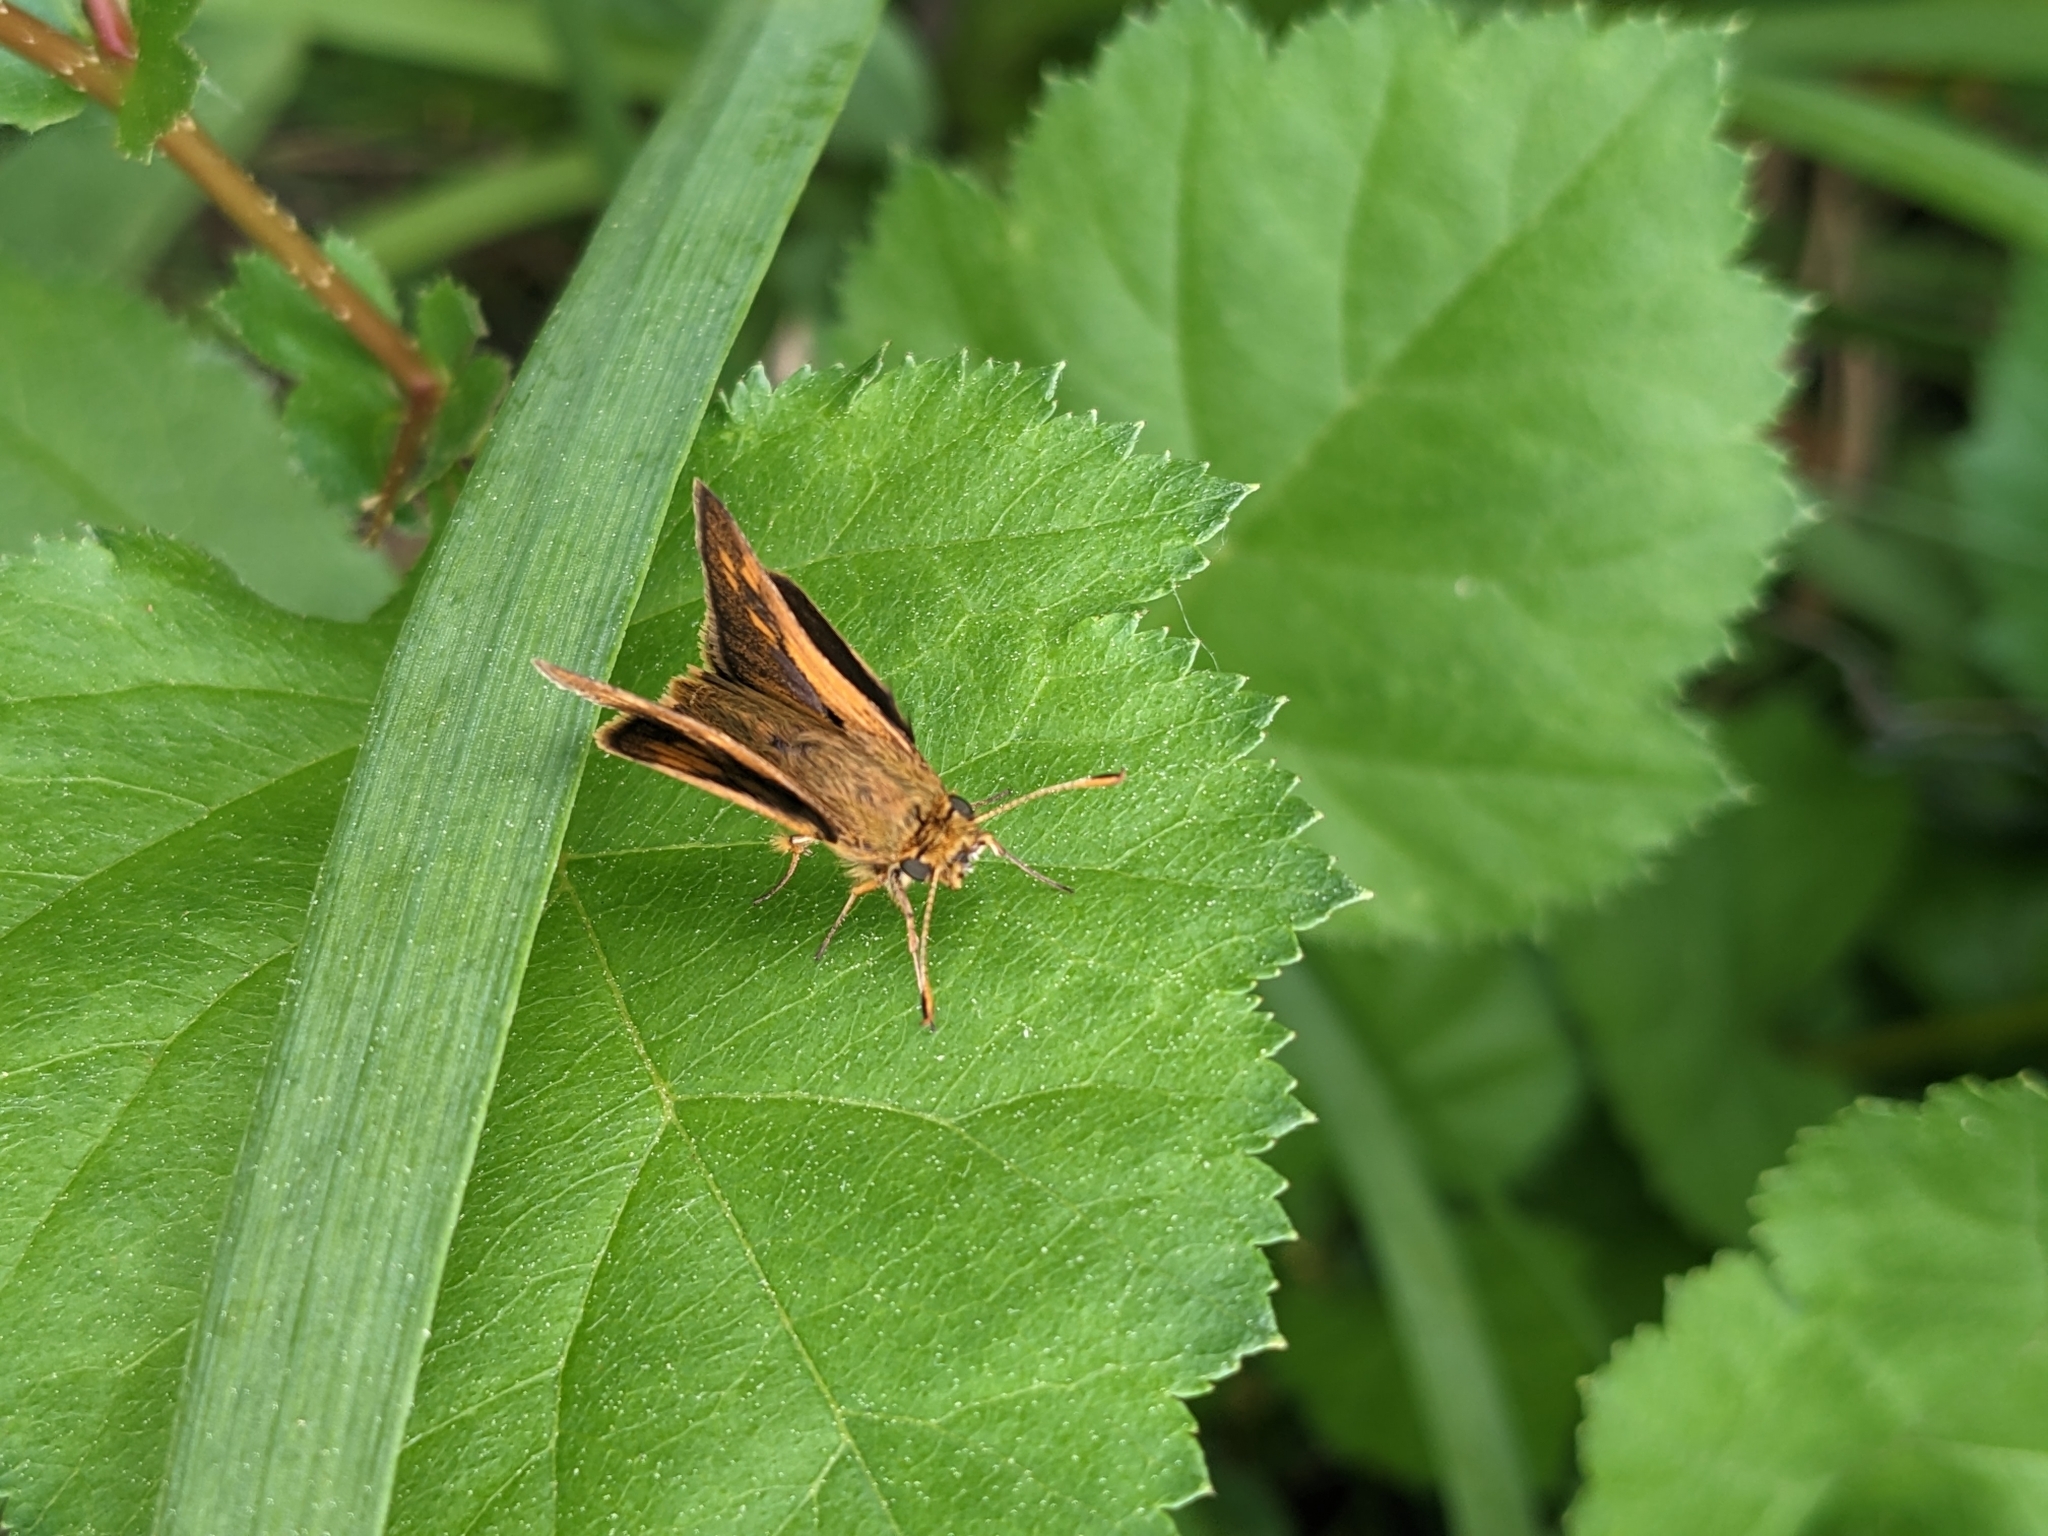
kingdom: Animalia
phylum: Arthropoda
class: Insecta
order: Lepidoptera
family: Hesperiidae
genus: Polites
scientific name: Polites coras
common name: Peck's skipper
